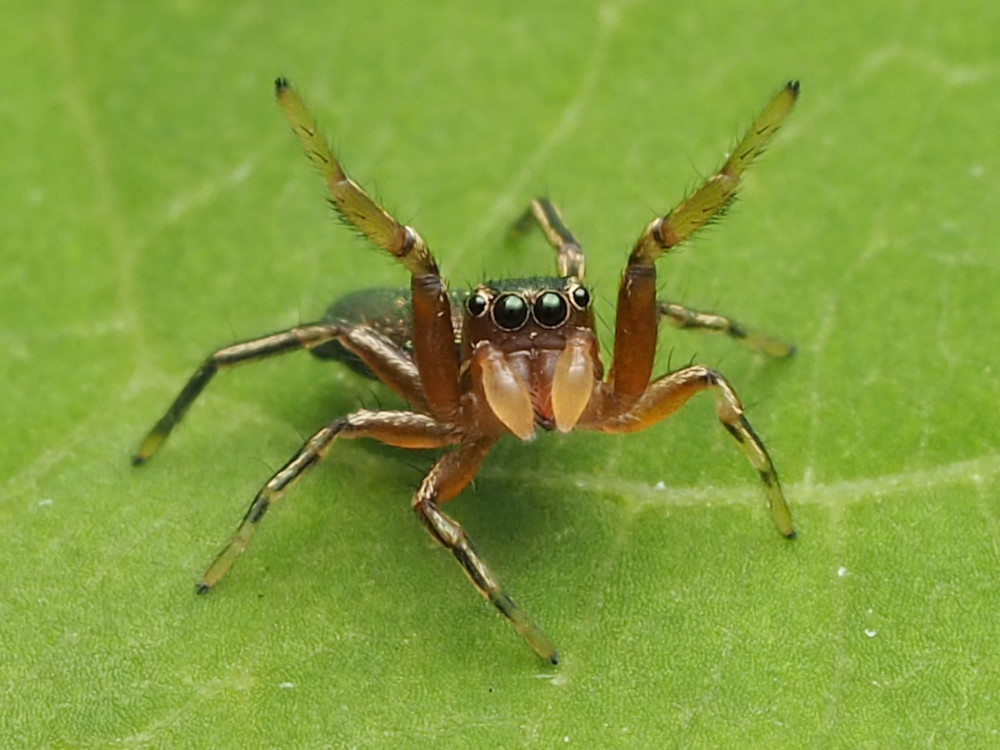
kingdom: Animalia
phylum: Arthropoda
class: Arachnida
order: Araneae
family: Salticidae
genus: Tutelina
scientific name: Tutelina elegans
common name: Thin-spined jumping spider
